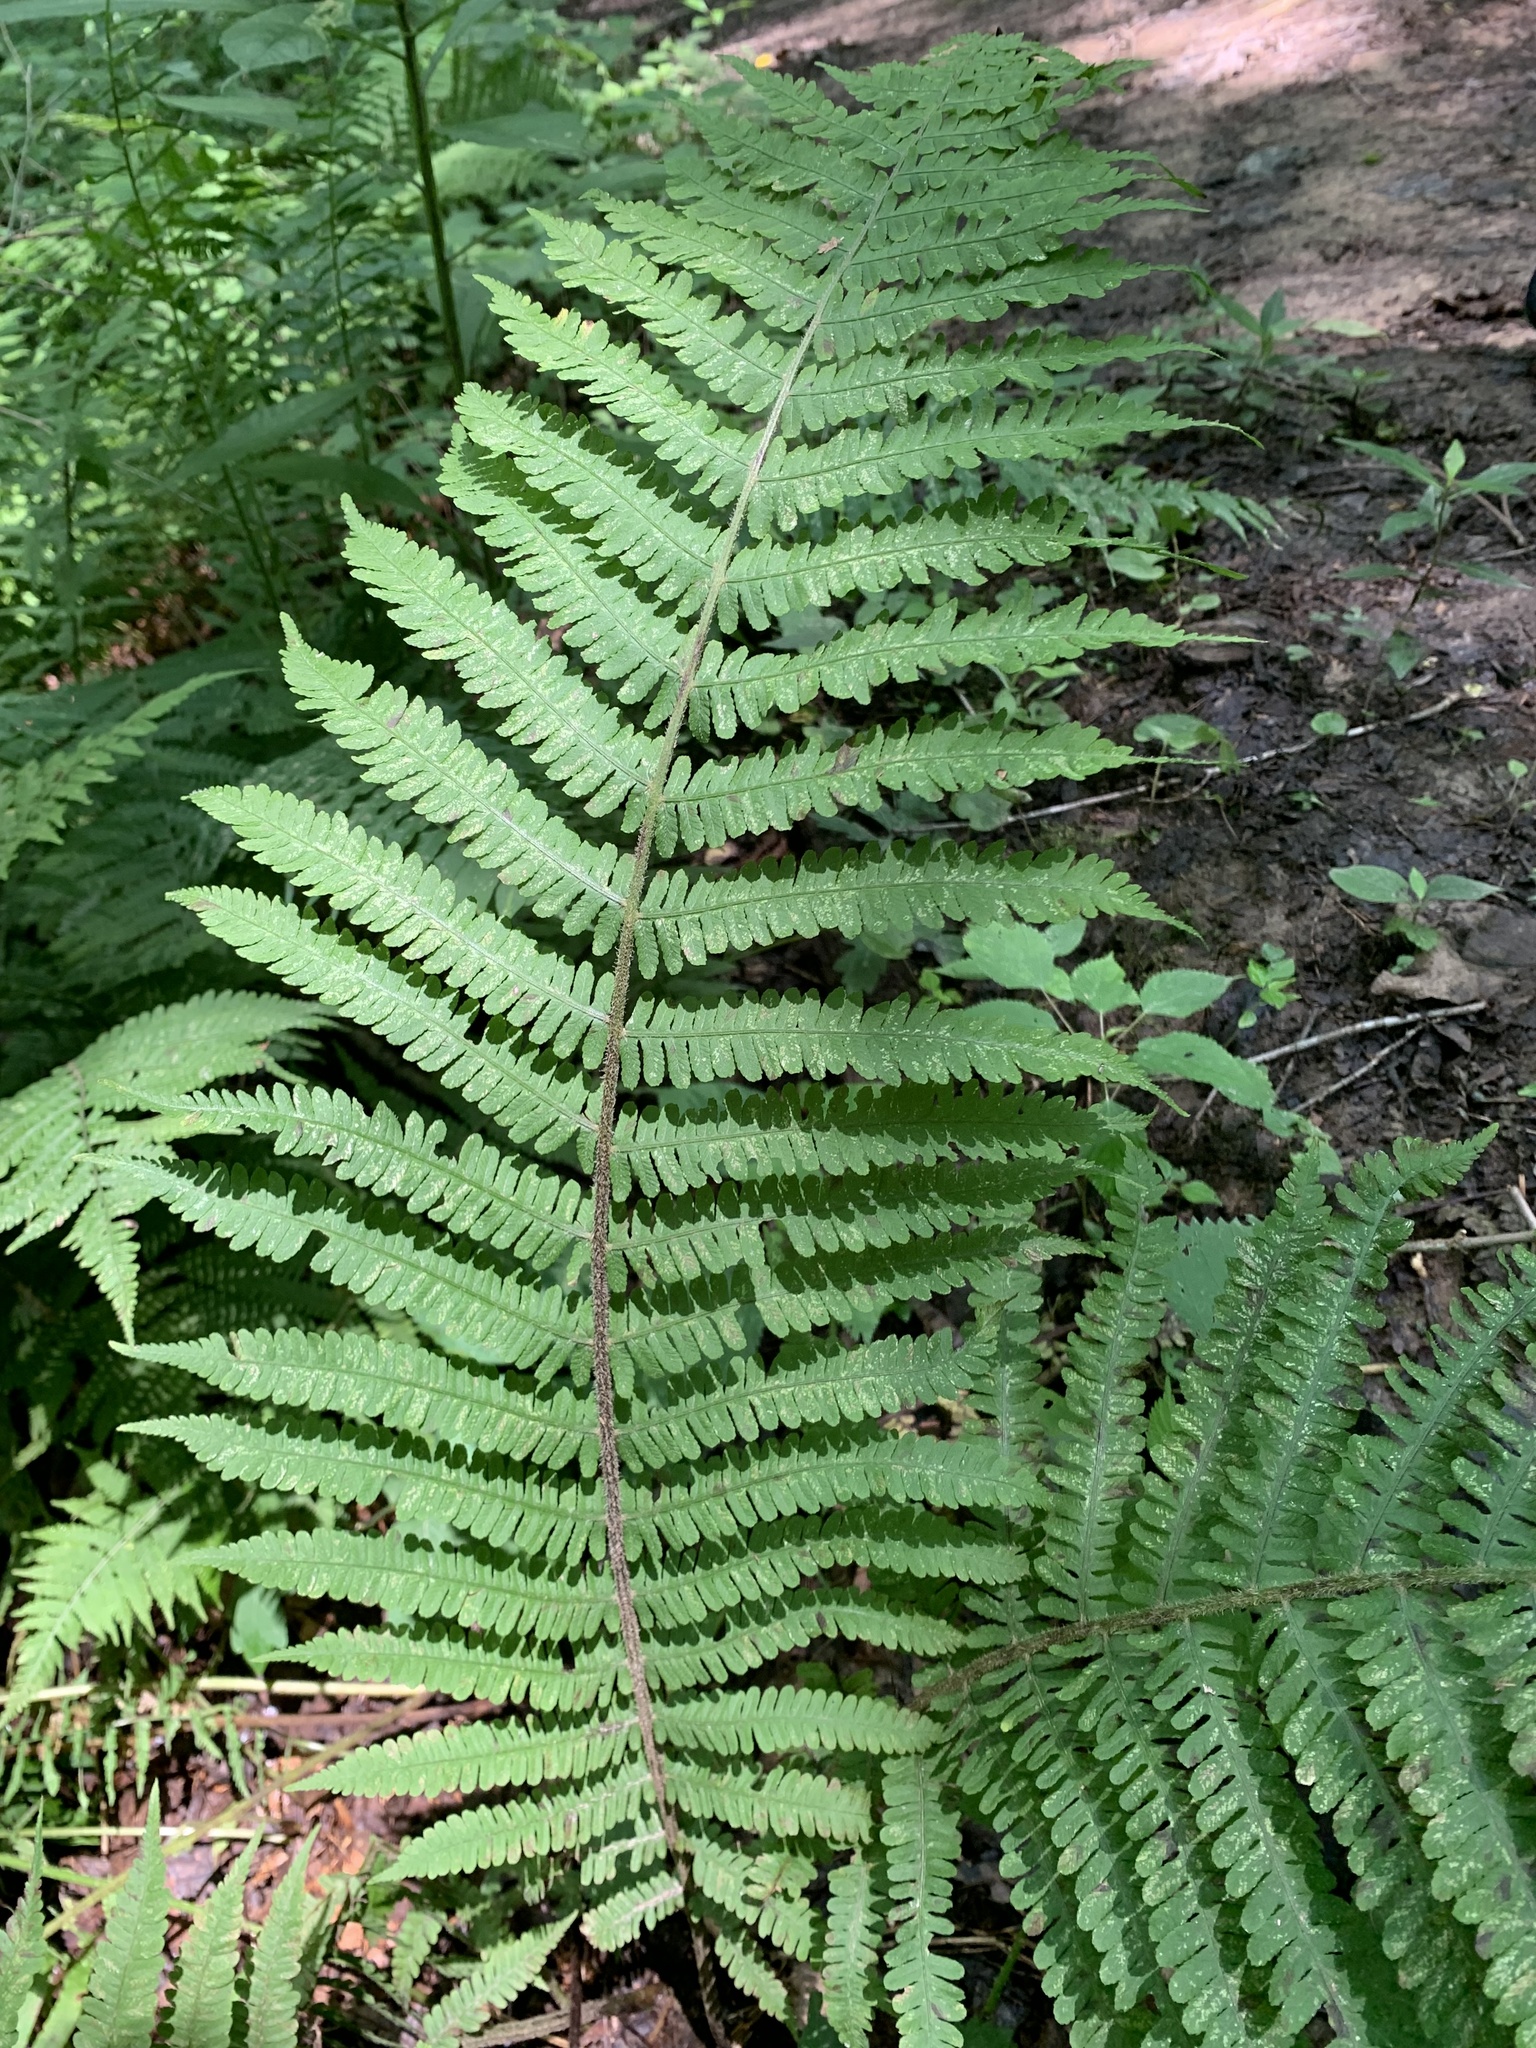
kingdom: Plantae
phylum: Tracheophyta
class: Polypodiopsida
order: Polypodiales
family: Athyriaceae
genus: Deparia
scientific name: Deparia acrostichoides
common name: Silver false spleenwort
